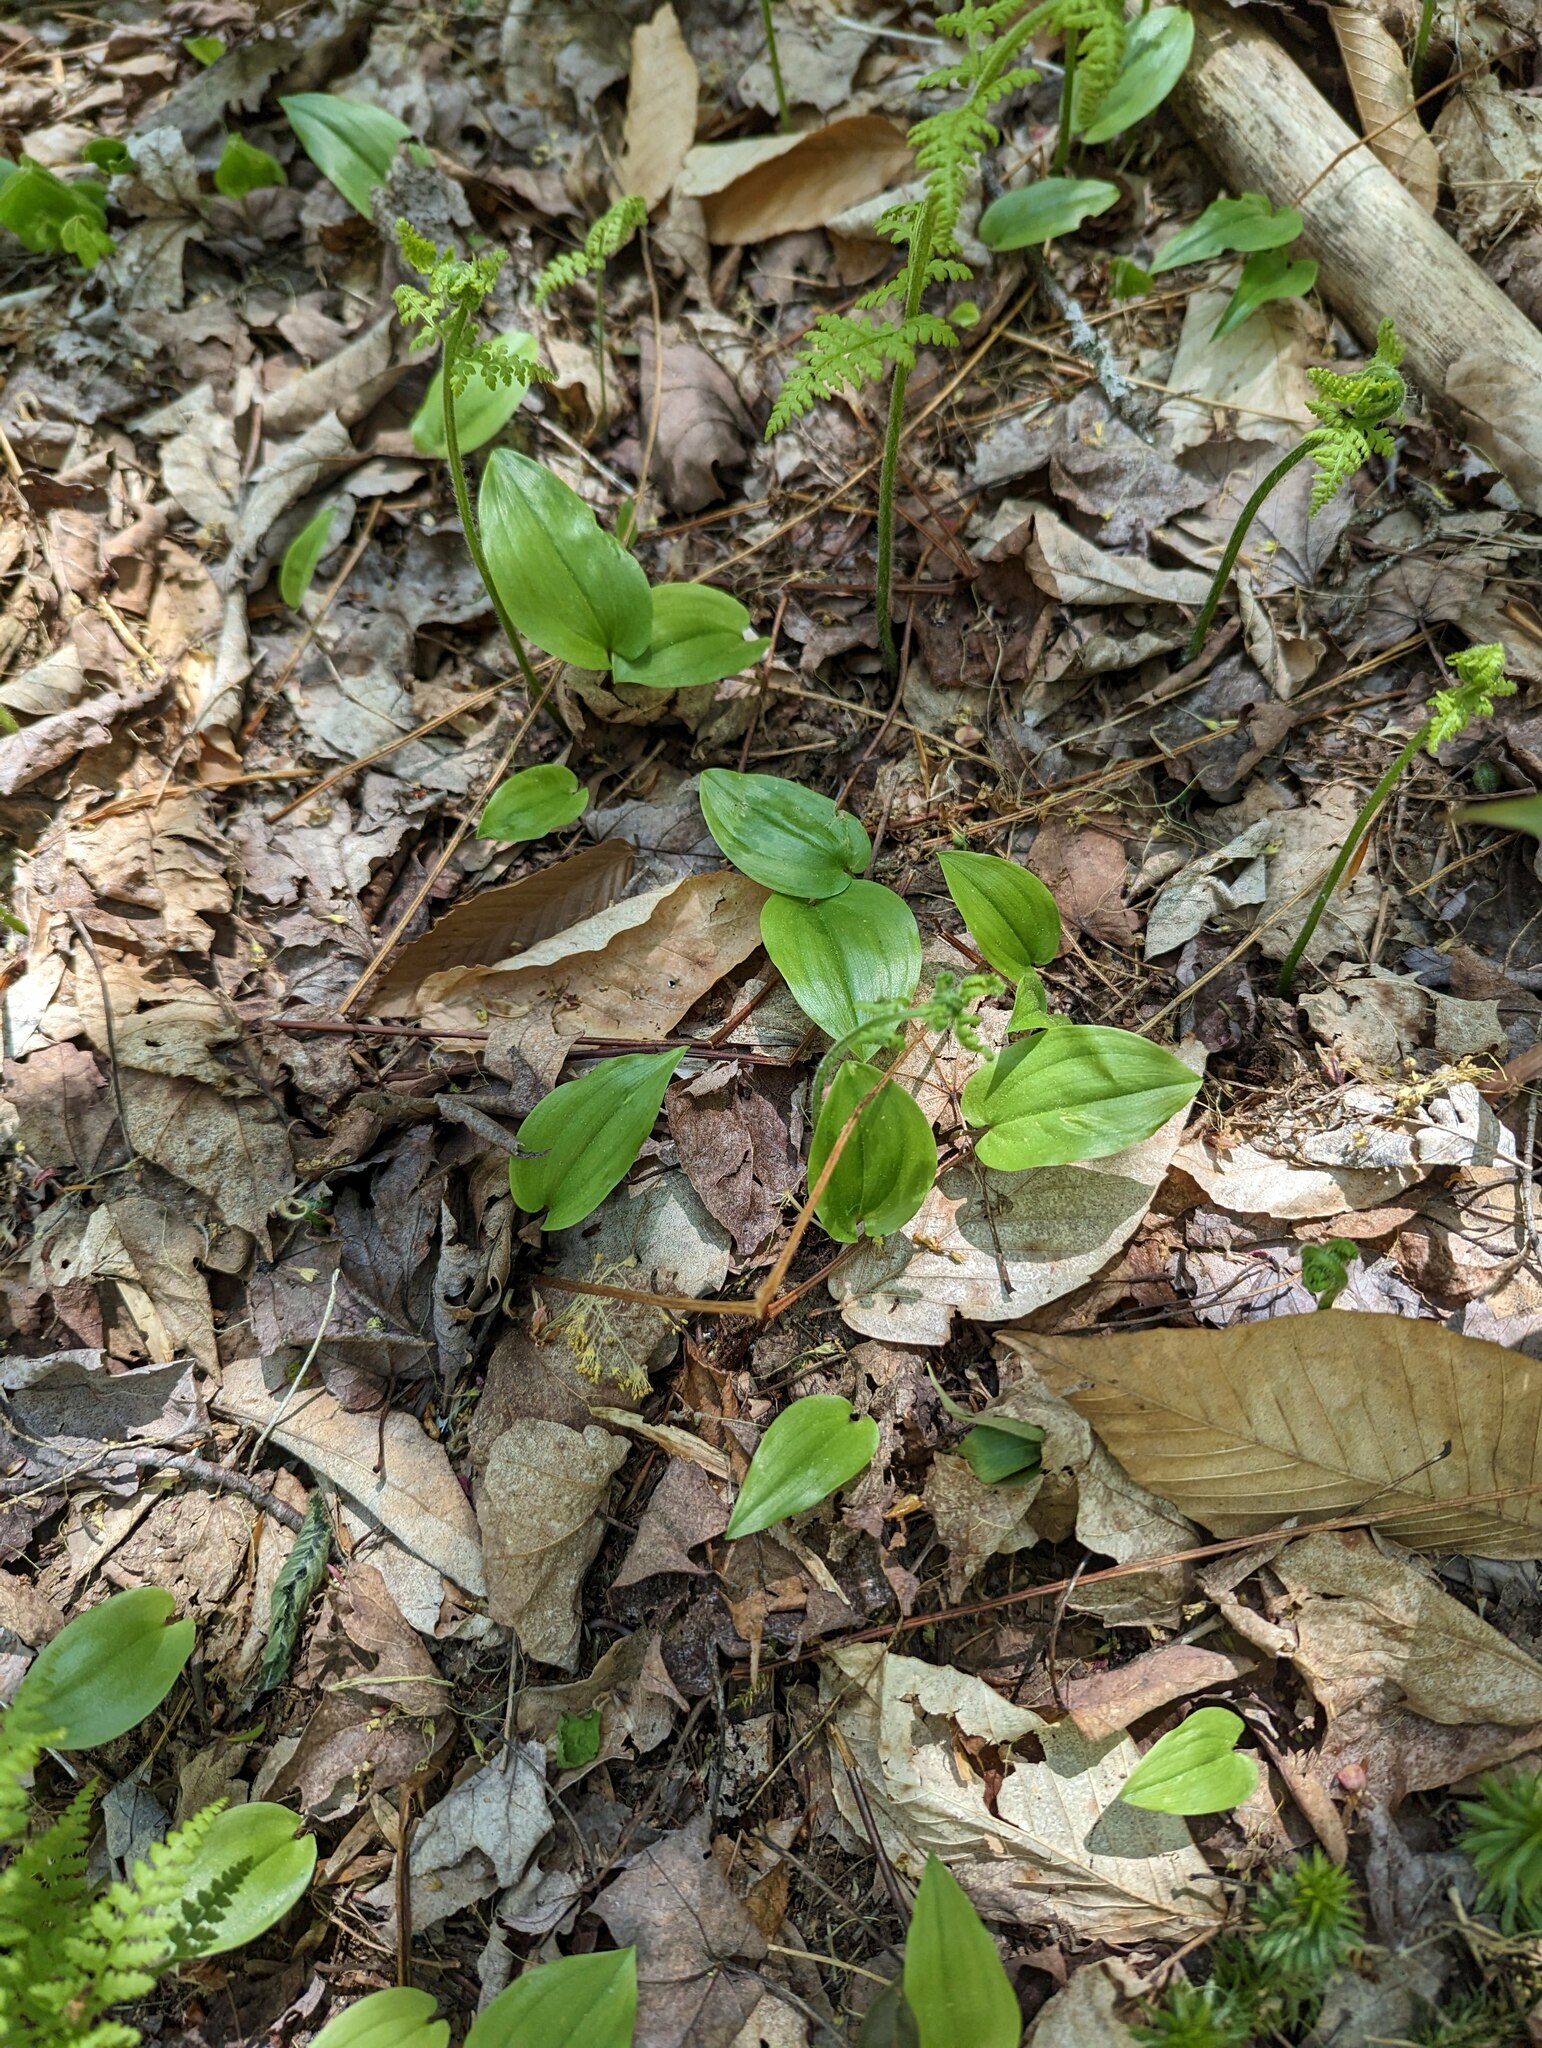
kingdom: Plantae
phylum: Tracheophyta
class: Liliopsida
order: Asparagales
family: Asparagaceae
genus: Maianthemum
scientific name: Maianthemum canadense
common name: False lily-of-the-valley
